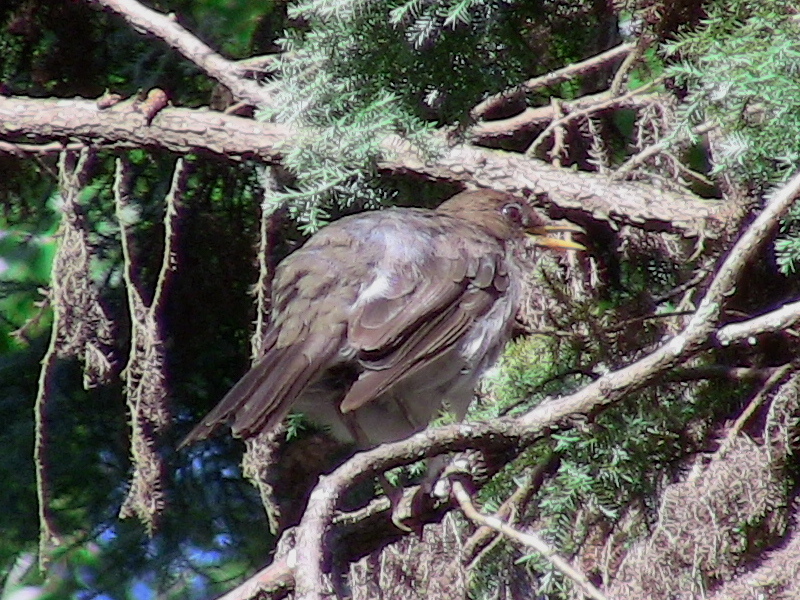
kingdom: Animalia
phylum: Chordata
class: Aves
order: Passeriformes
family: Turdidae
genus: Turdus
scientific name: Turdus amaurochalinus
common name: Creamy-bellied thrush
